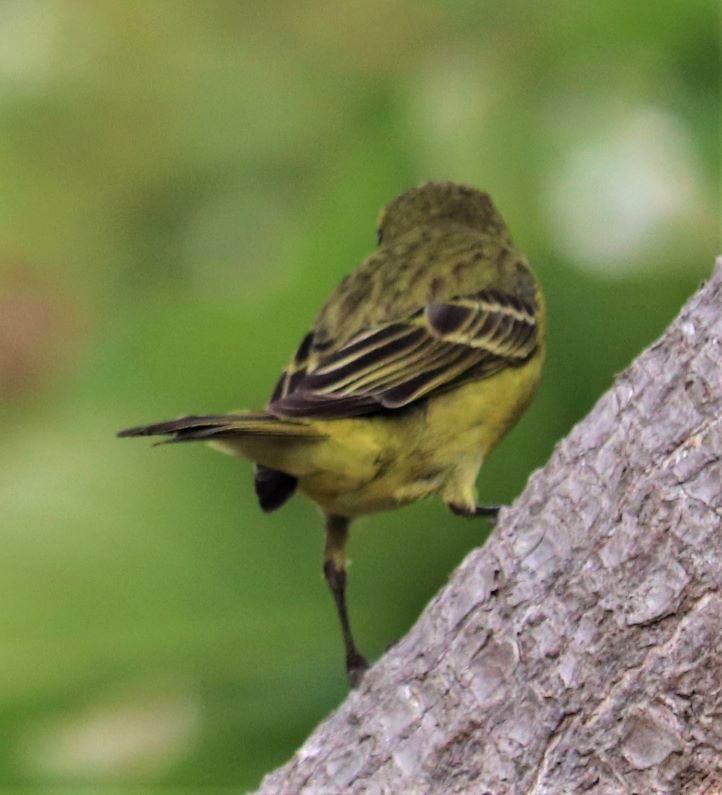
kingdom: Animalia
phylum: Chordata
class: Aves
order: Passeriformes
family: Fringillidae
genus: Crithagra
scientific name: Crithagra sulphurata
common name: Brimstone canary
